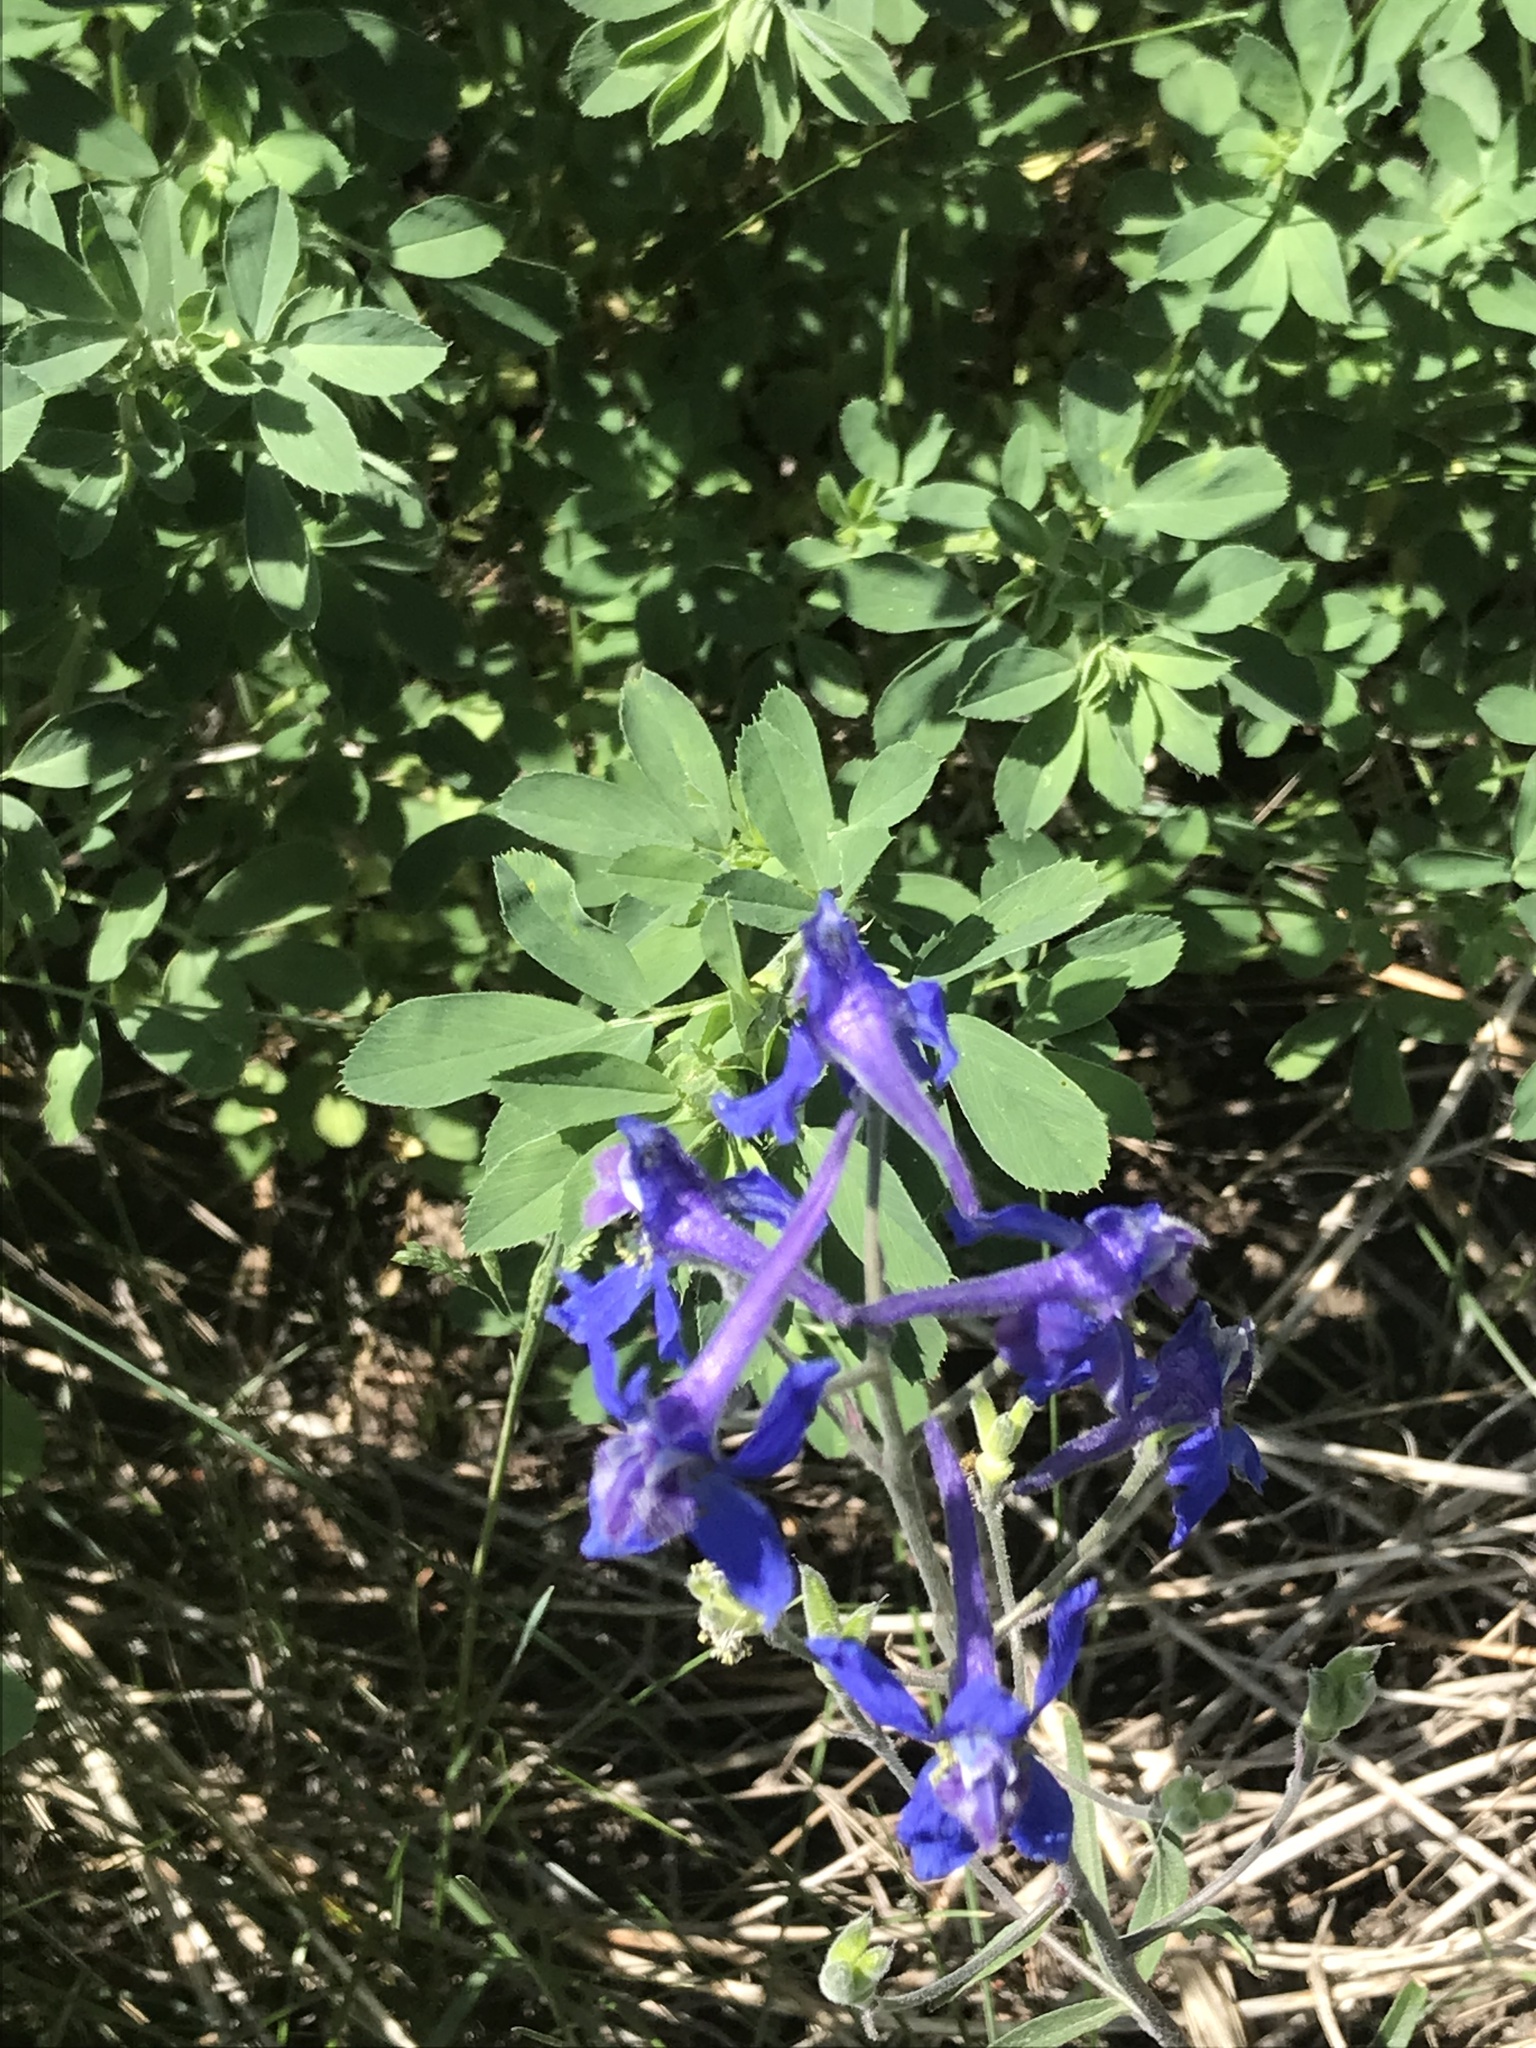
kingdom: Plantae
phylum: Tracheophyta
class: Magnoliopsida
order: Ranunculales
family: Ranunculaceae
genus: Delphinium
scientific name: Delphinium nuttallianum
